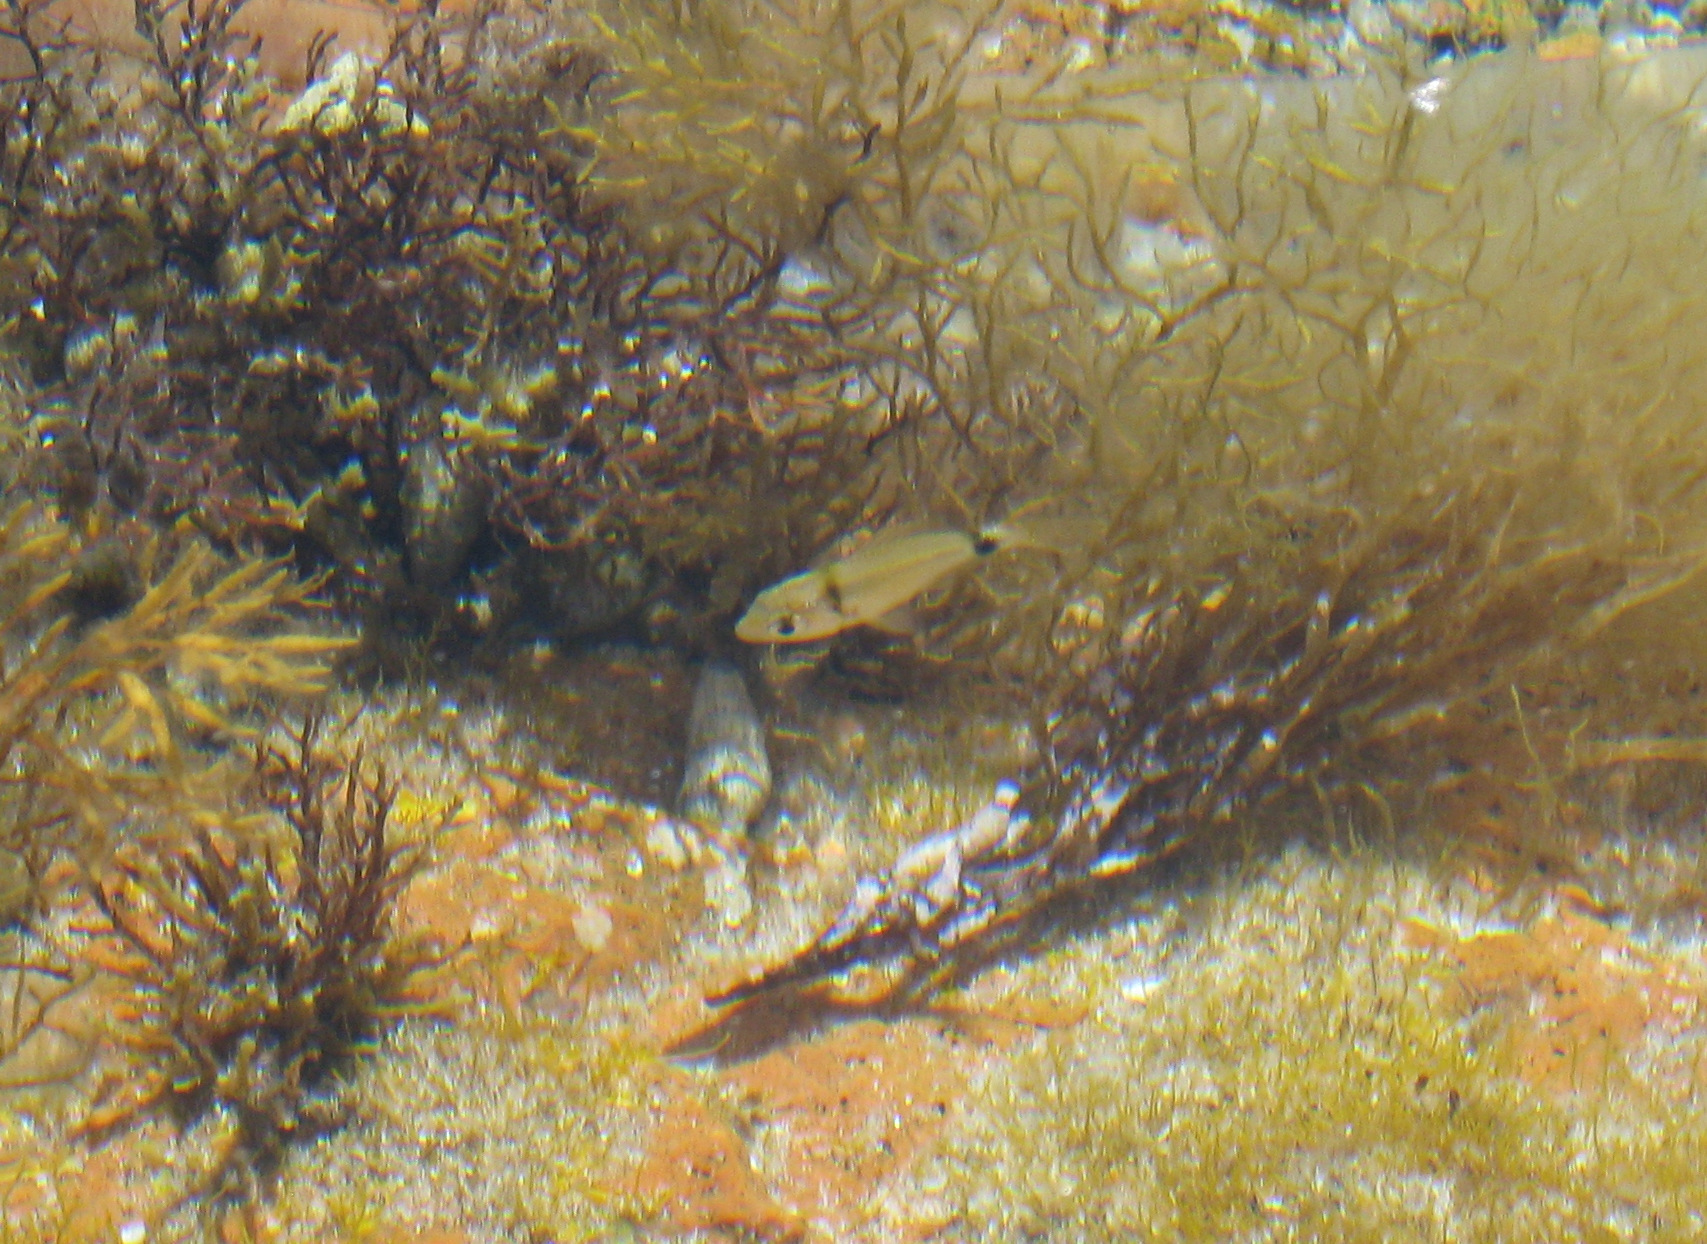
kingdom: Animalia
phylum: Chordata
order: Perciformes
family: Sparidae
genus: Diplodus
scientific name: Diplodus vulgaris
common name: Common two-banded seabream
